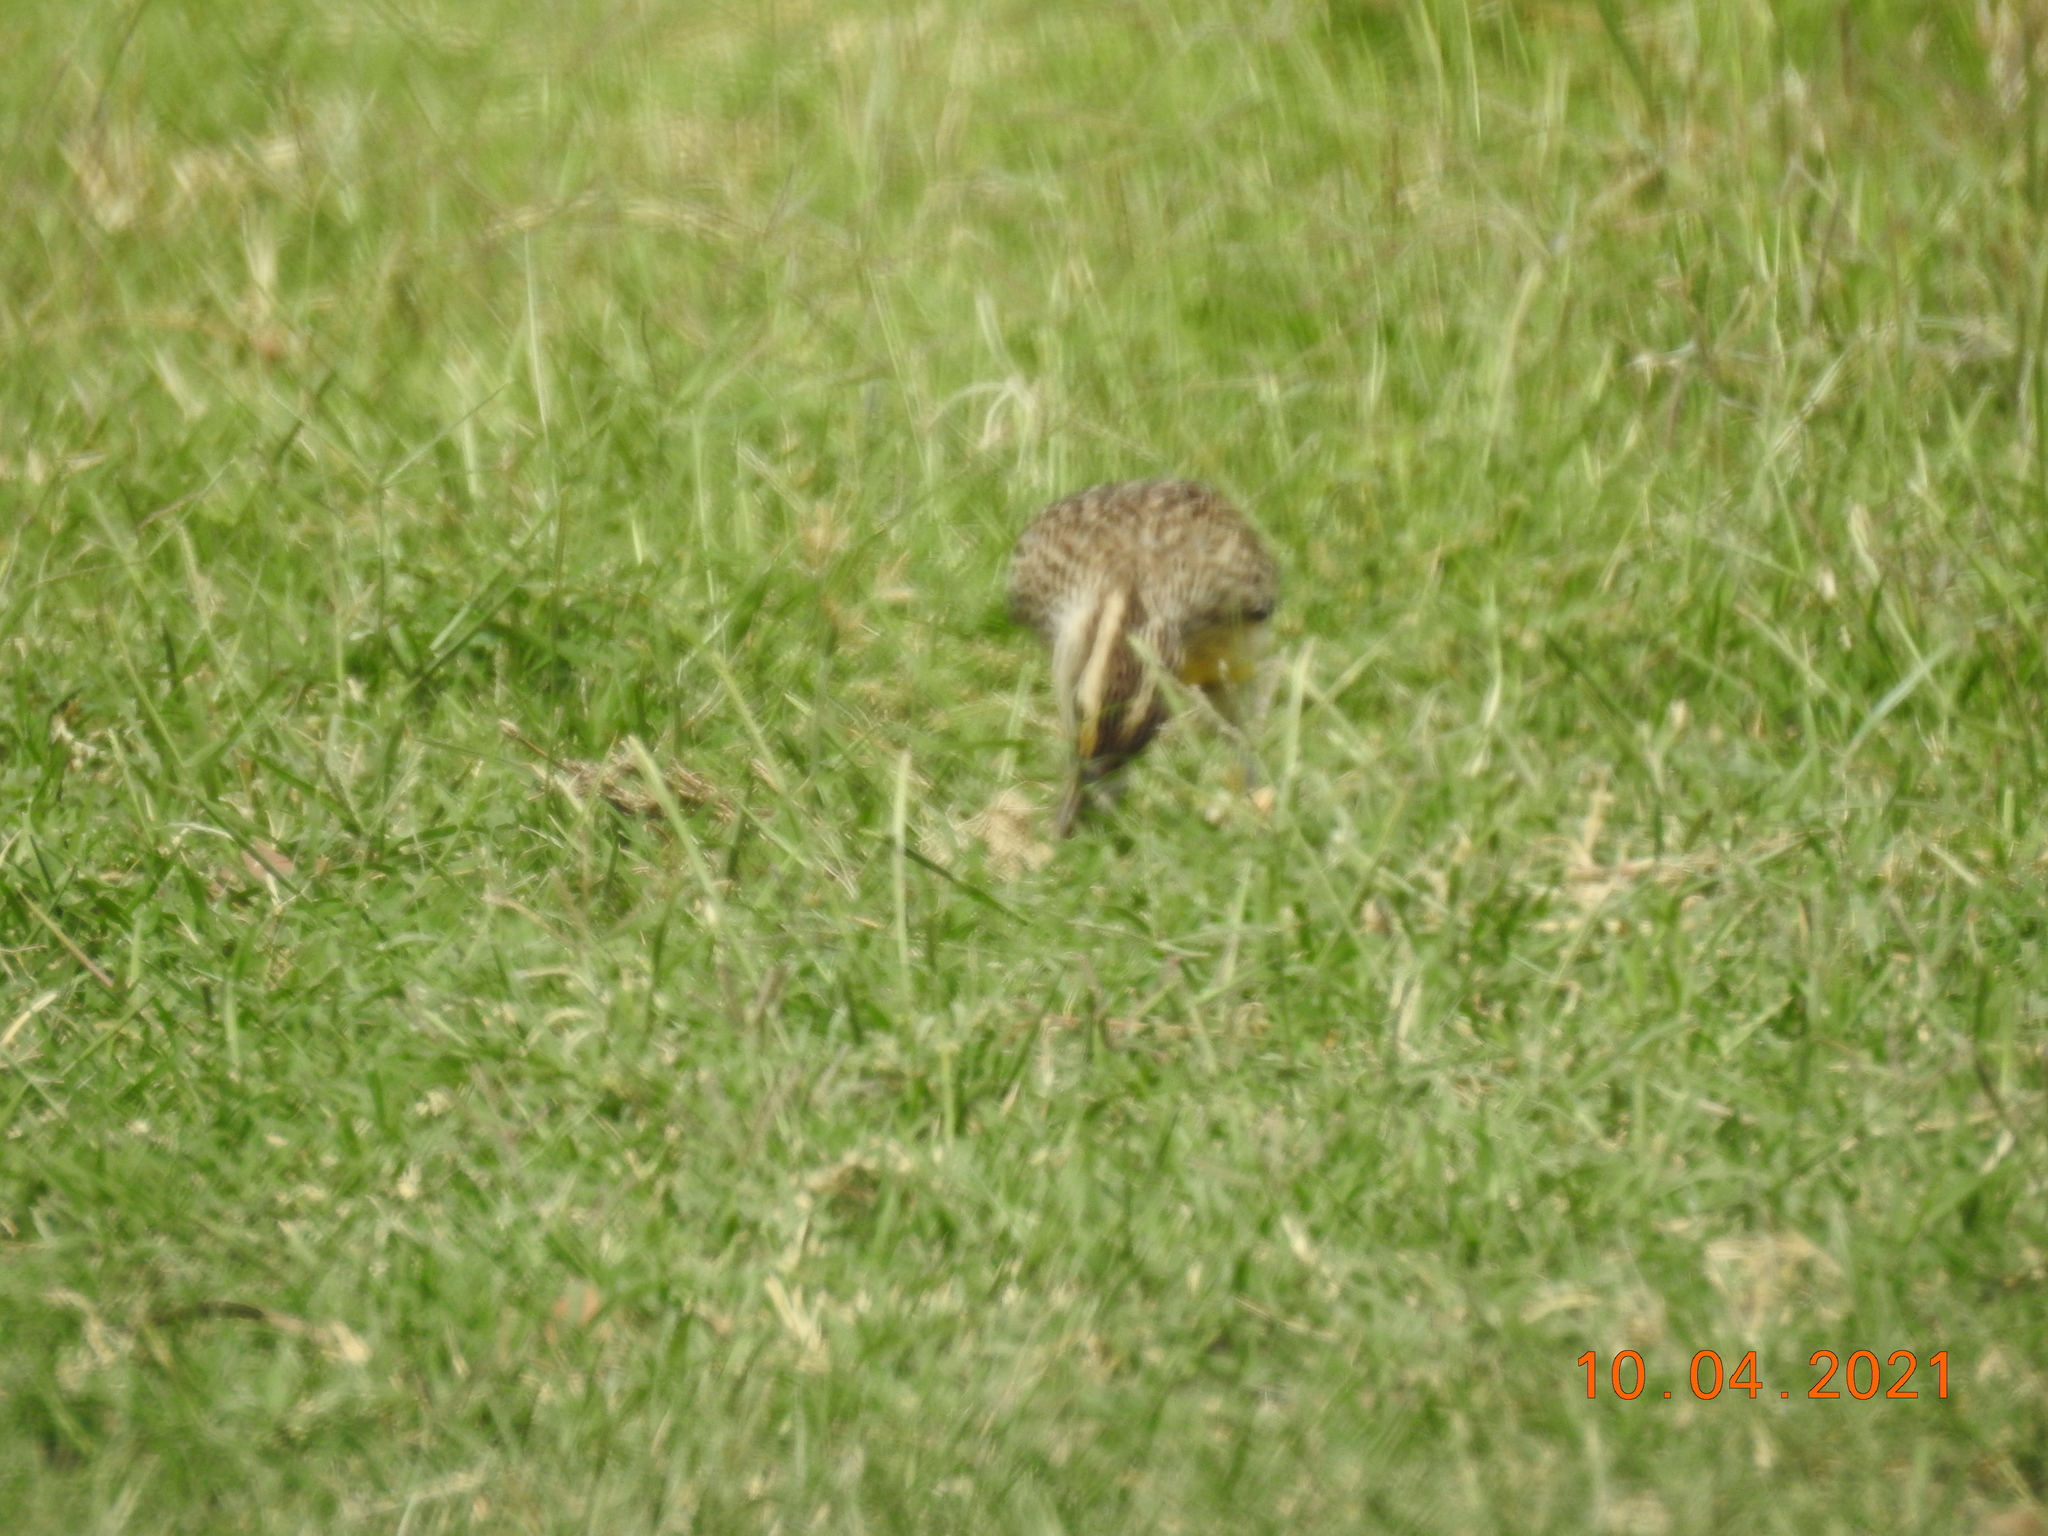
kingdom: Animalia
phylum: Chordata
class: Aves
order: Passeriformes
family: Icteridae
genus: Sturnella
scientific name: Sturnella neglecta
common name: Western meadowlark
